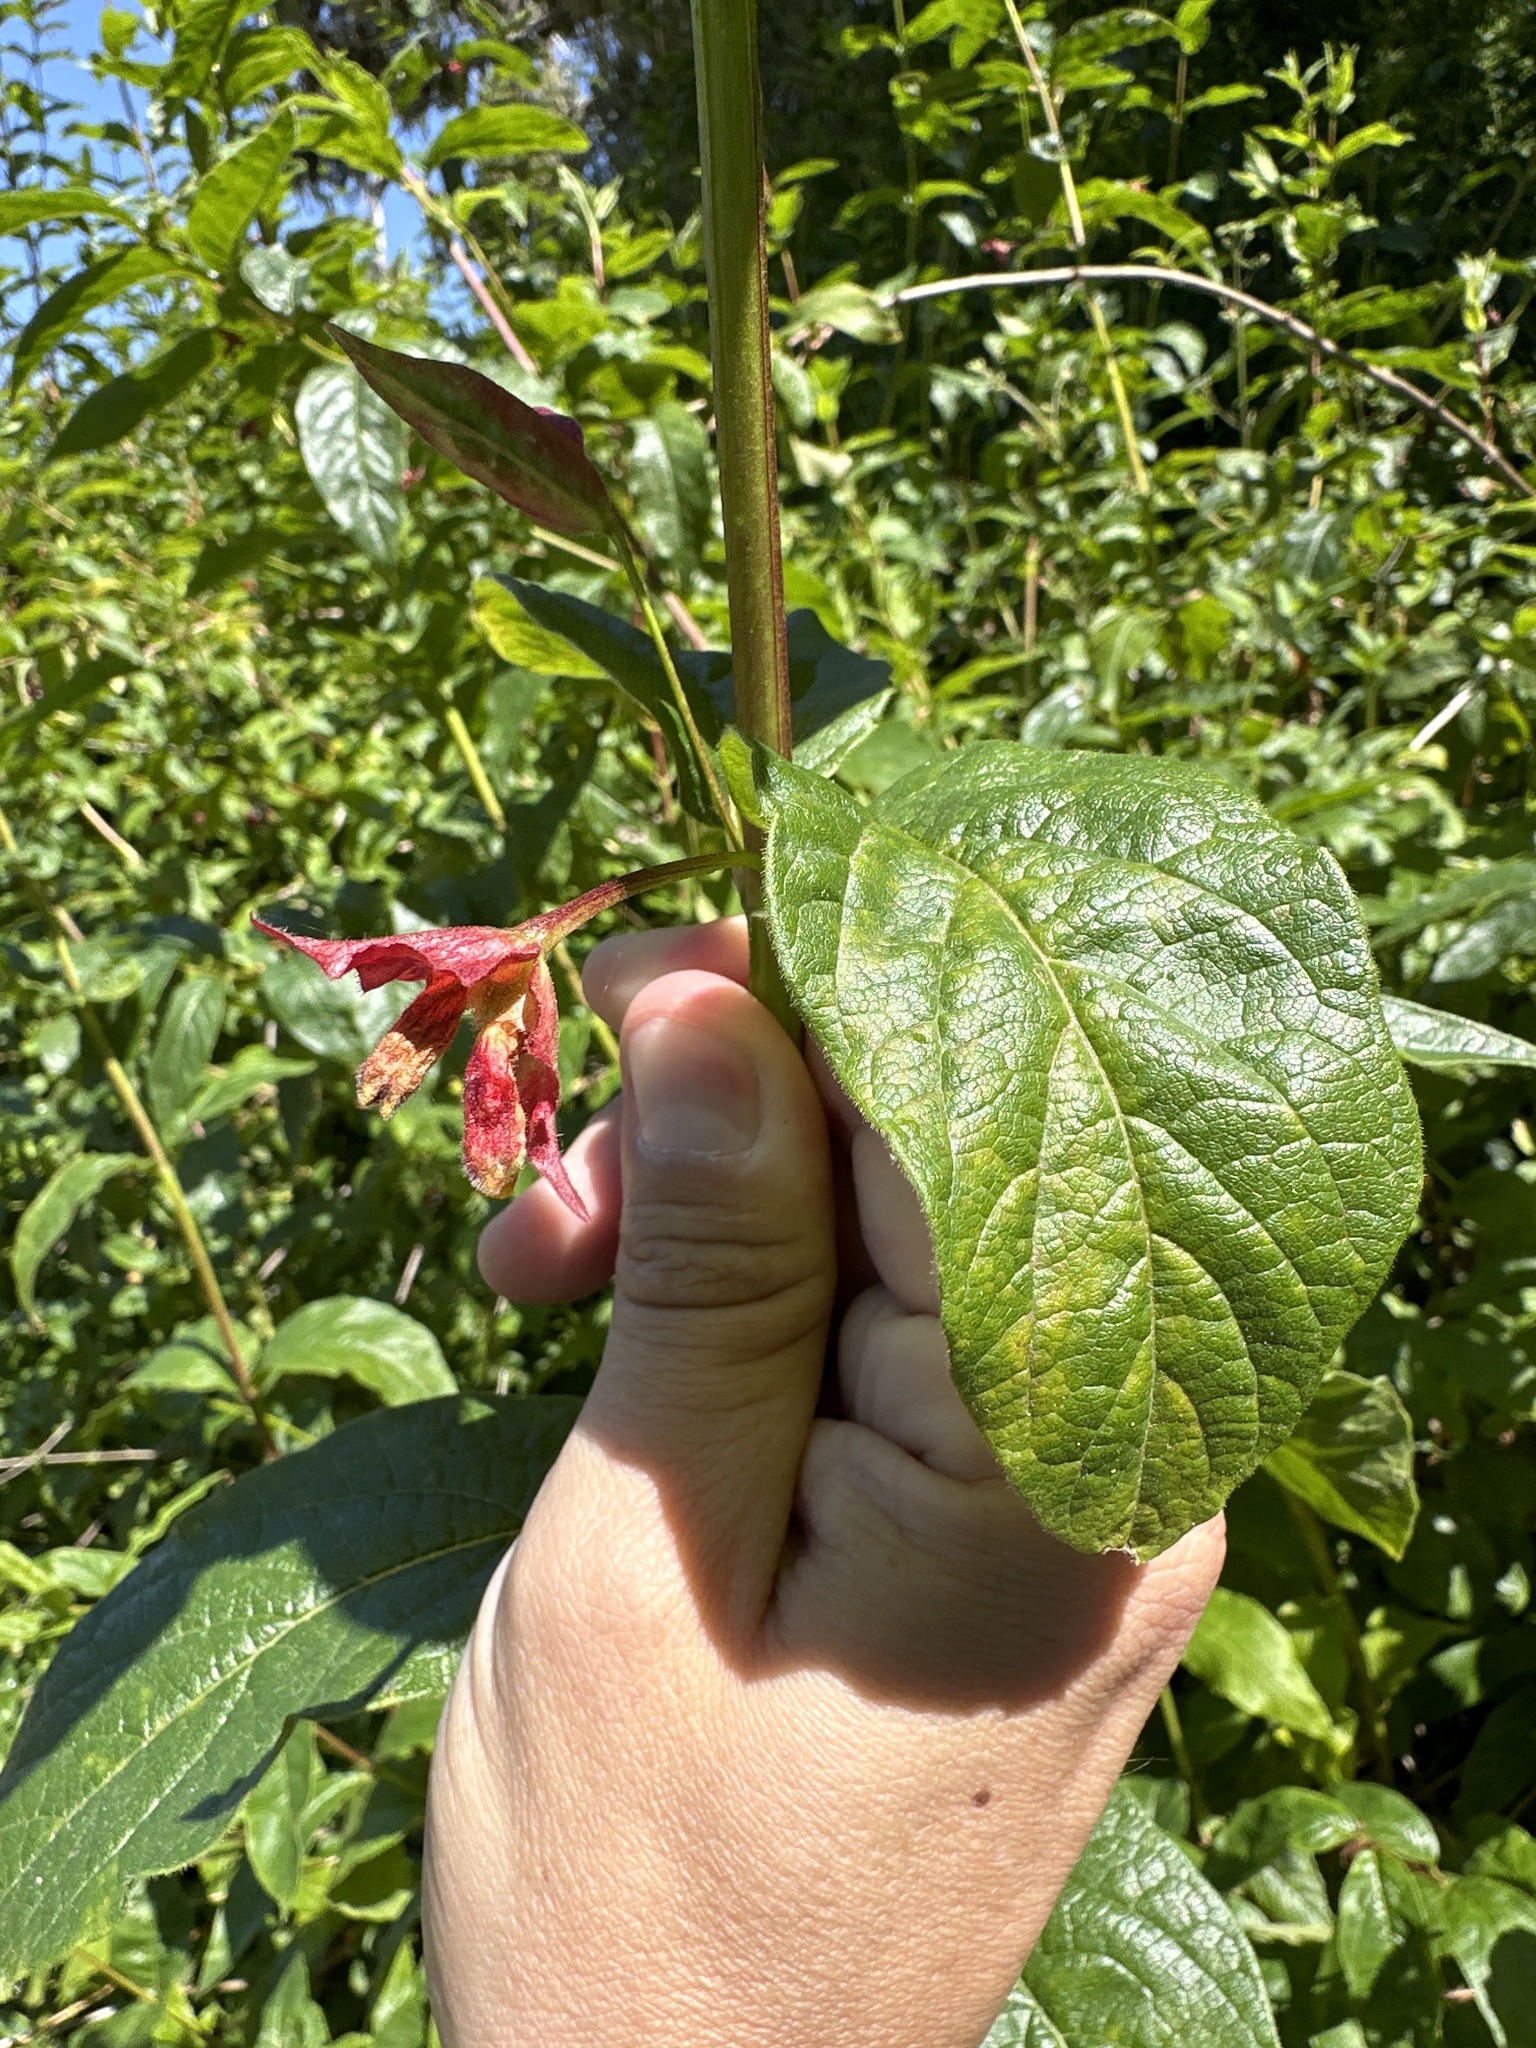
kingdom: Plantae
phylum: Tracheophyta
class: Magnoliopsida
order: Dipsacales
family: Caprifoliaceae
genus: Lonicera
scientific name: Lonicera involucrata
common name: Californian honeysuckle
